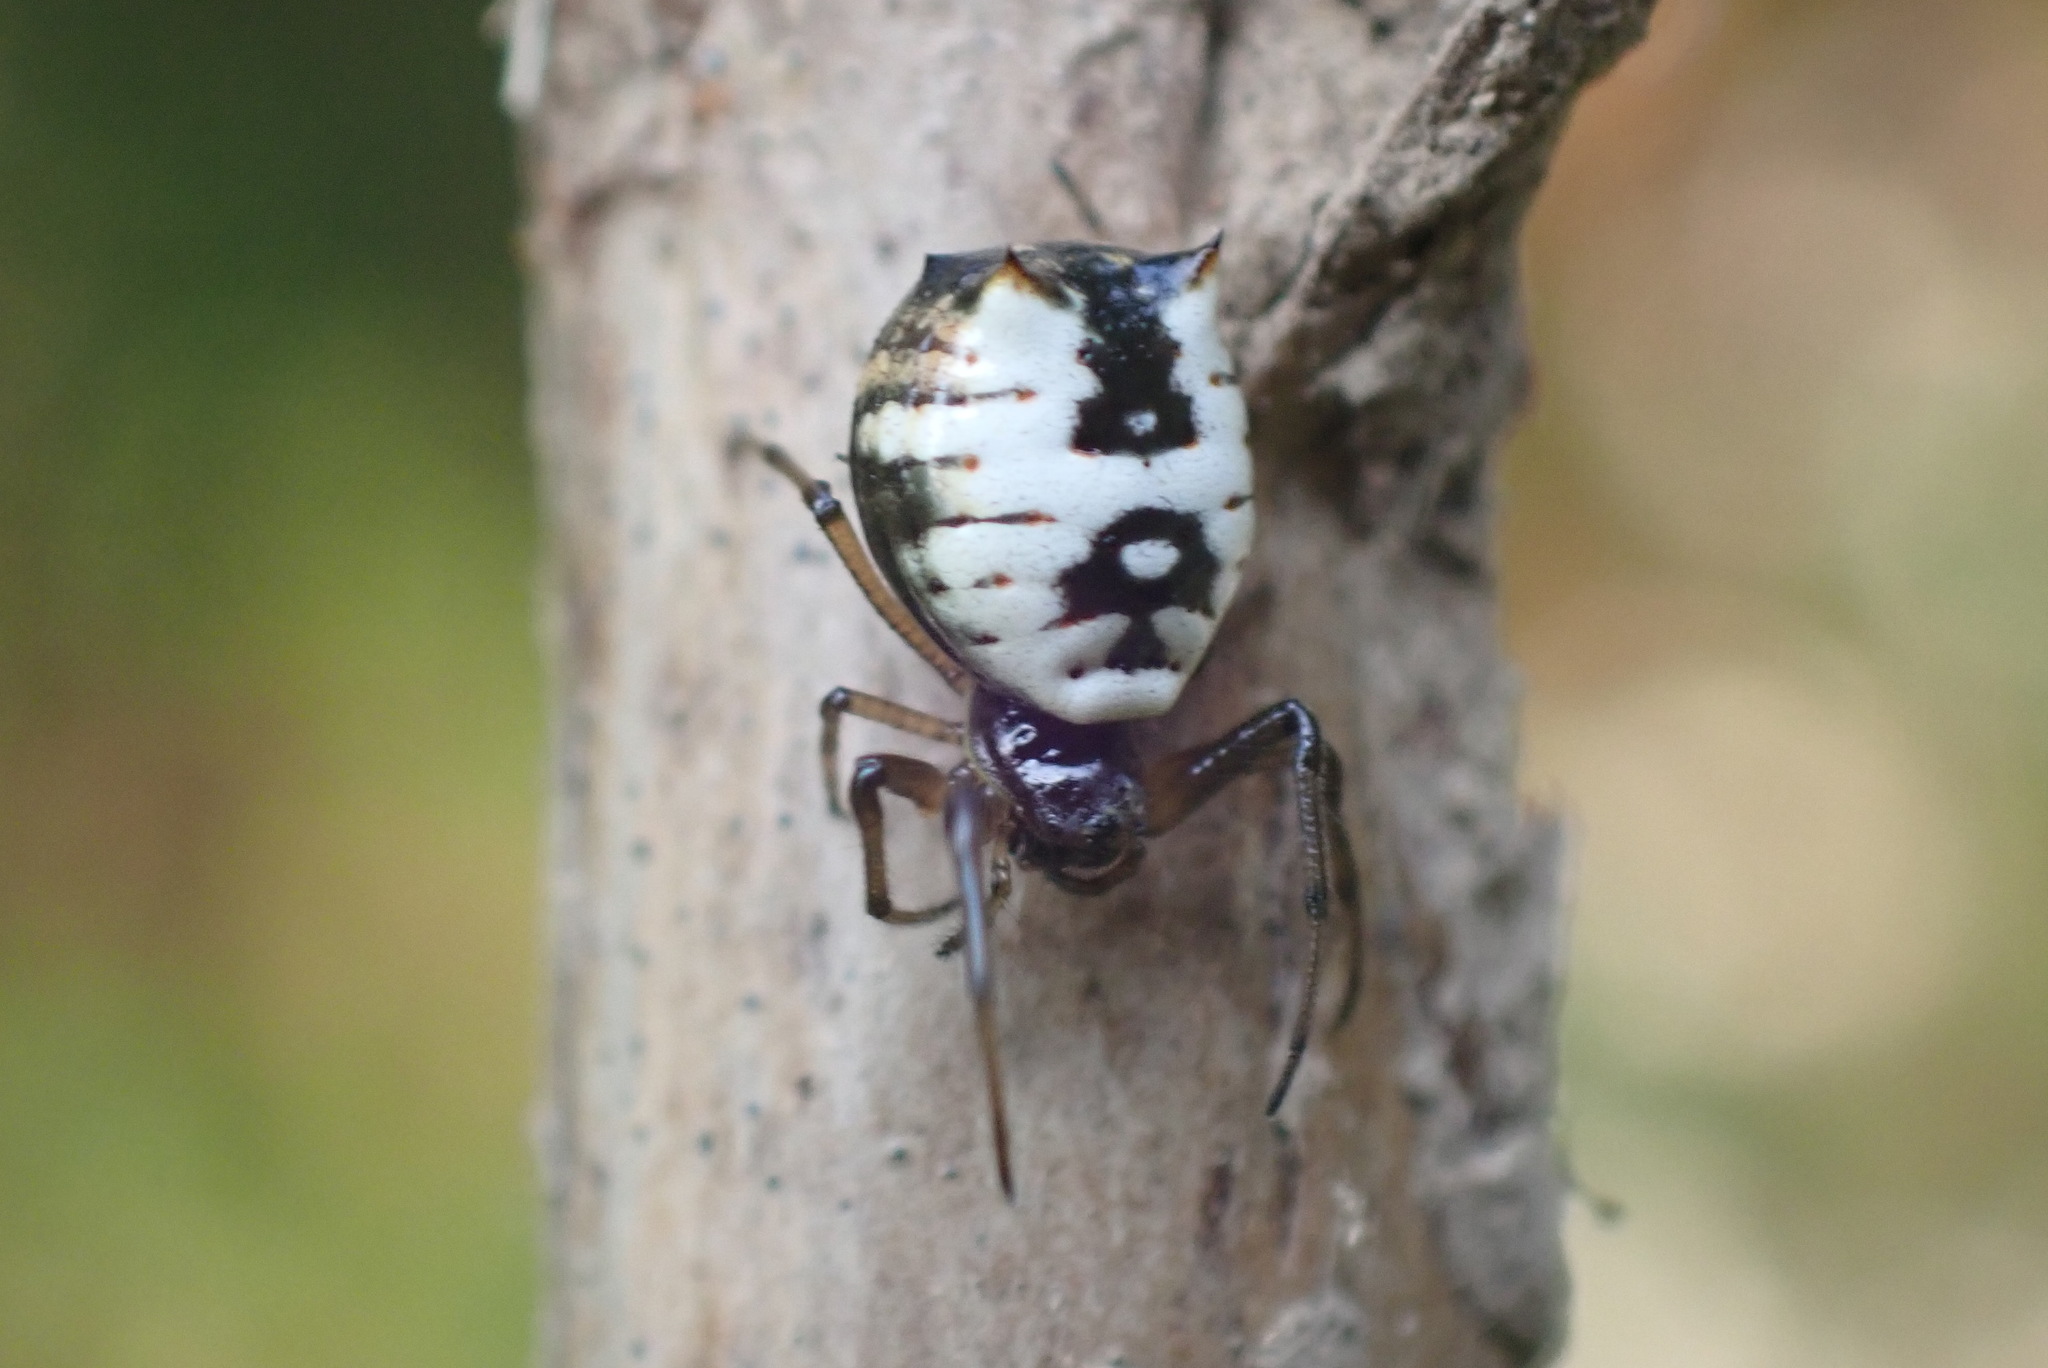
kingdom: Animalia
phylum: Arthropoda
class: Arachnida
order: Araneae
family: Araneidae
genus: Micrathena
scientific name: Micrathena mitrata
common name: Orb weavers
